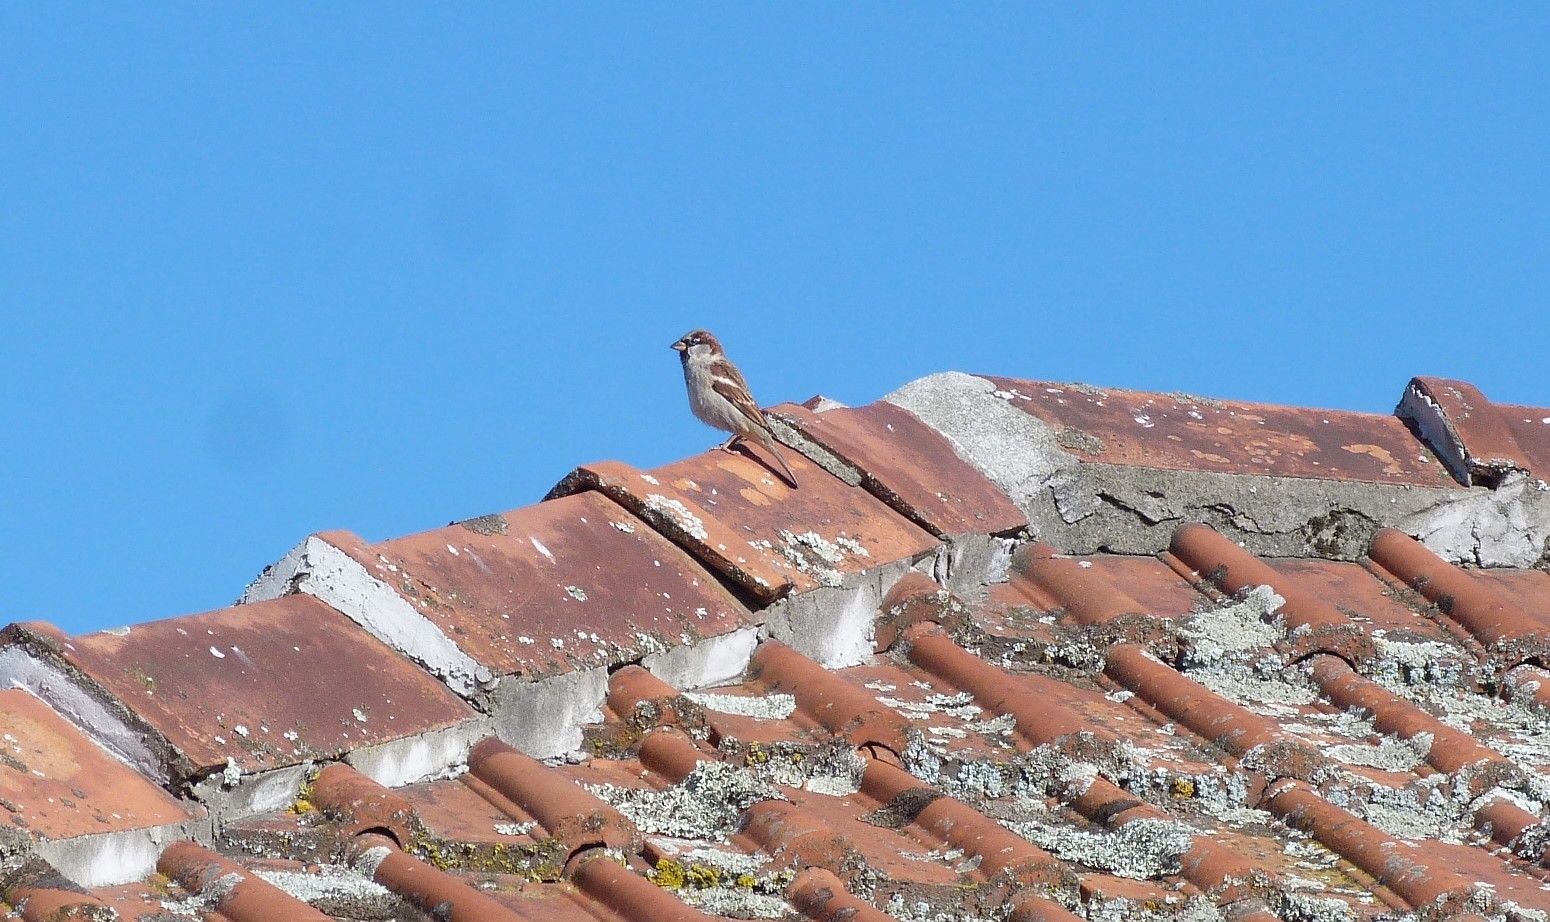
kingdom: Animalia
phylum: Chordata
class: Aves
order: Passeriformes
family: Passeridae
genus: Passer
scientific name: Passer domesticus
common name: House sparrow
